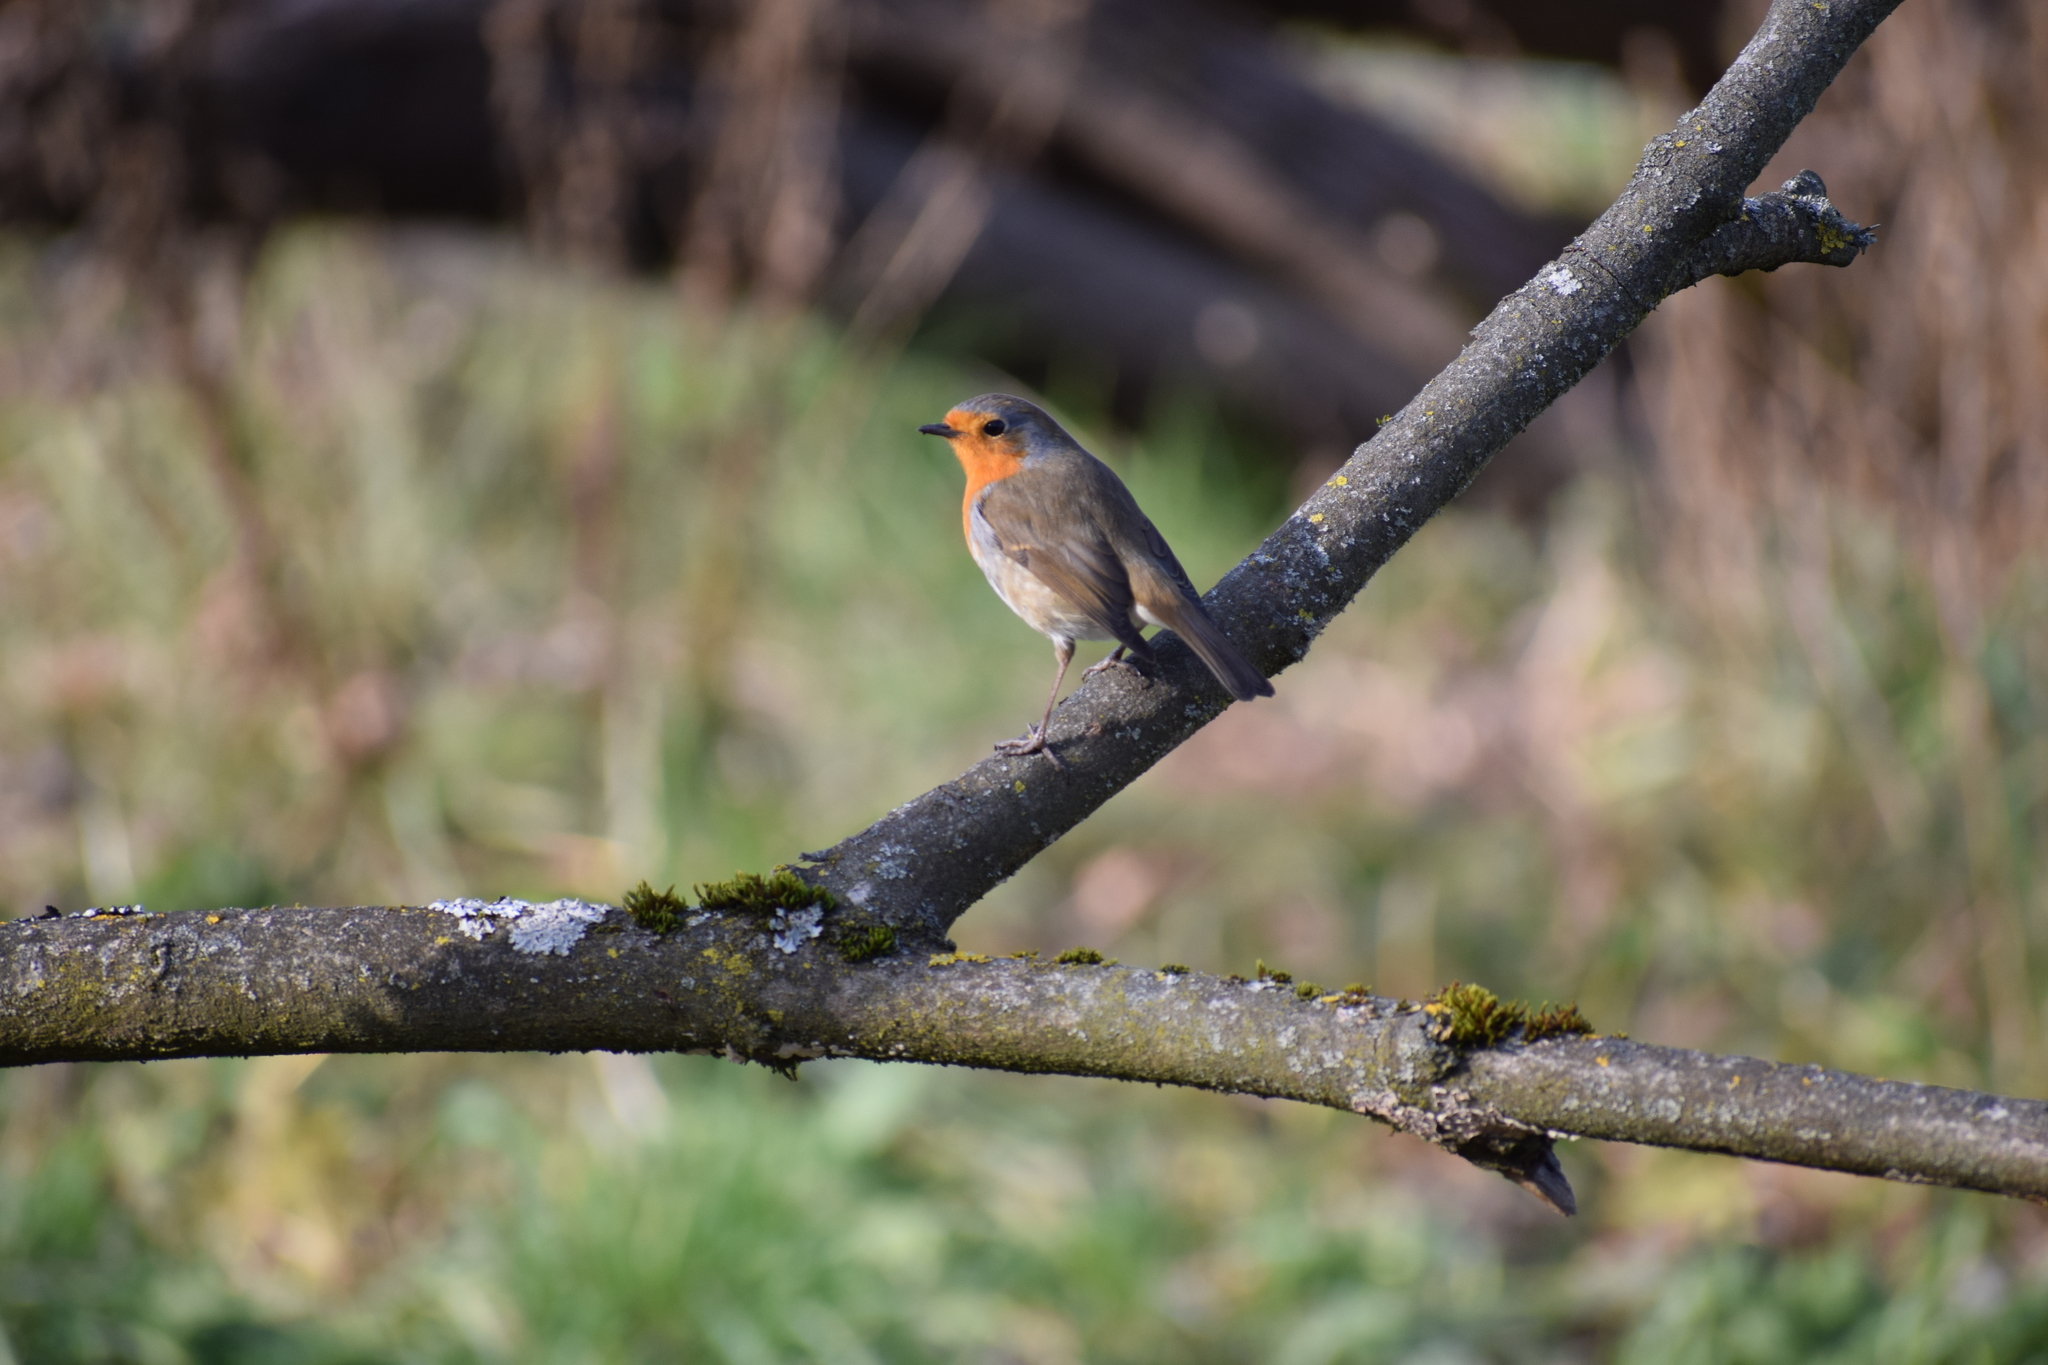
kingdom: Animalia
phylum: Chordata
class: Aves
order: Passeriformes
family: Muscicapidae
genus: Erithacus
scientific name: Erithacus rubecula
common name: European robin
